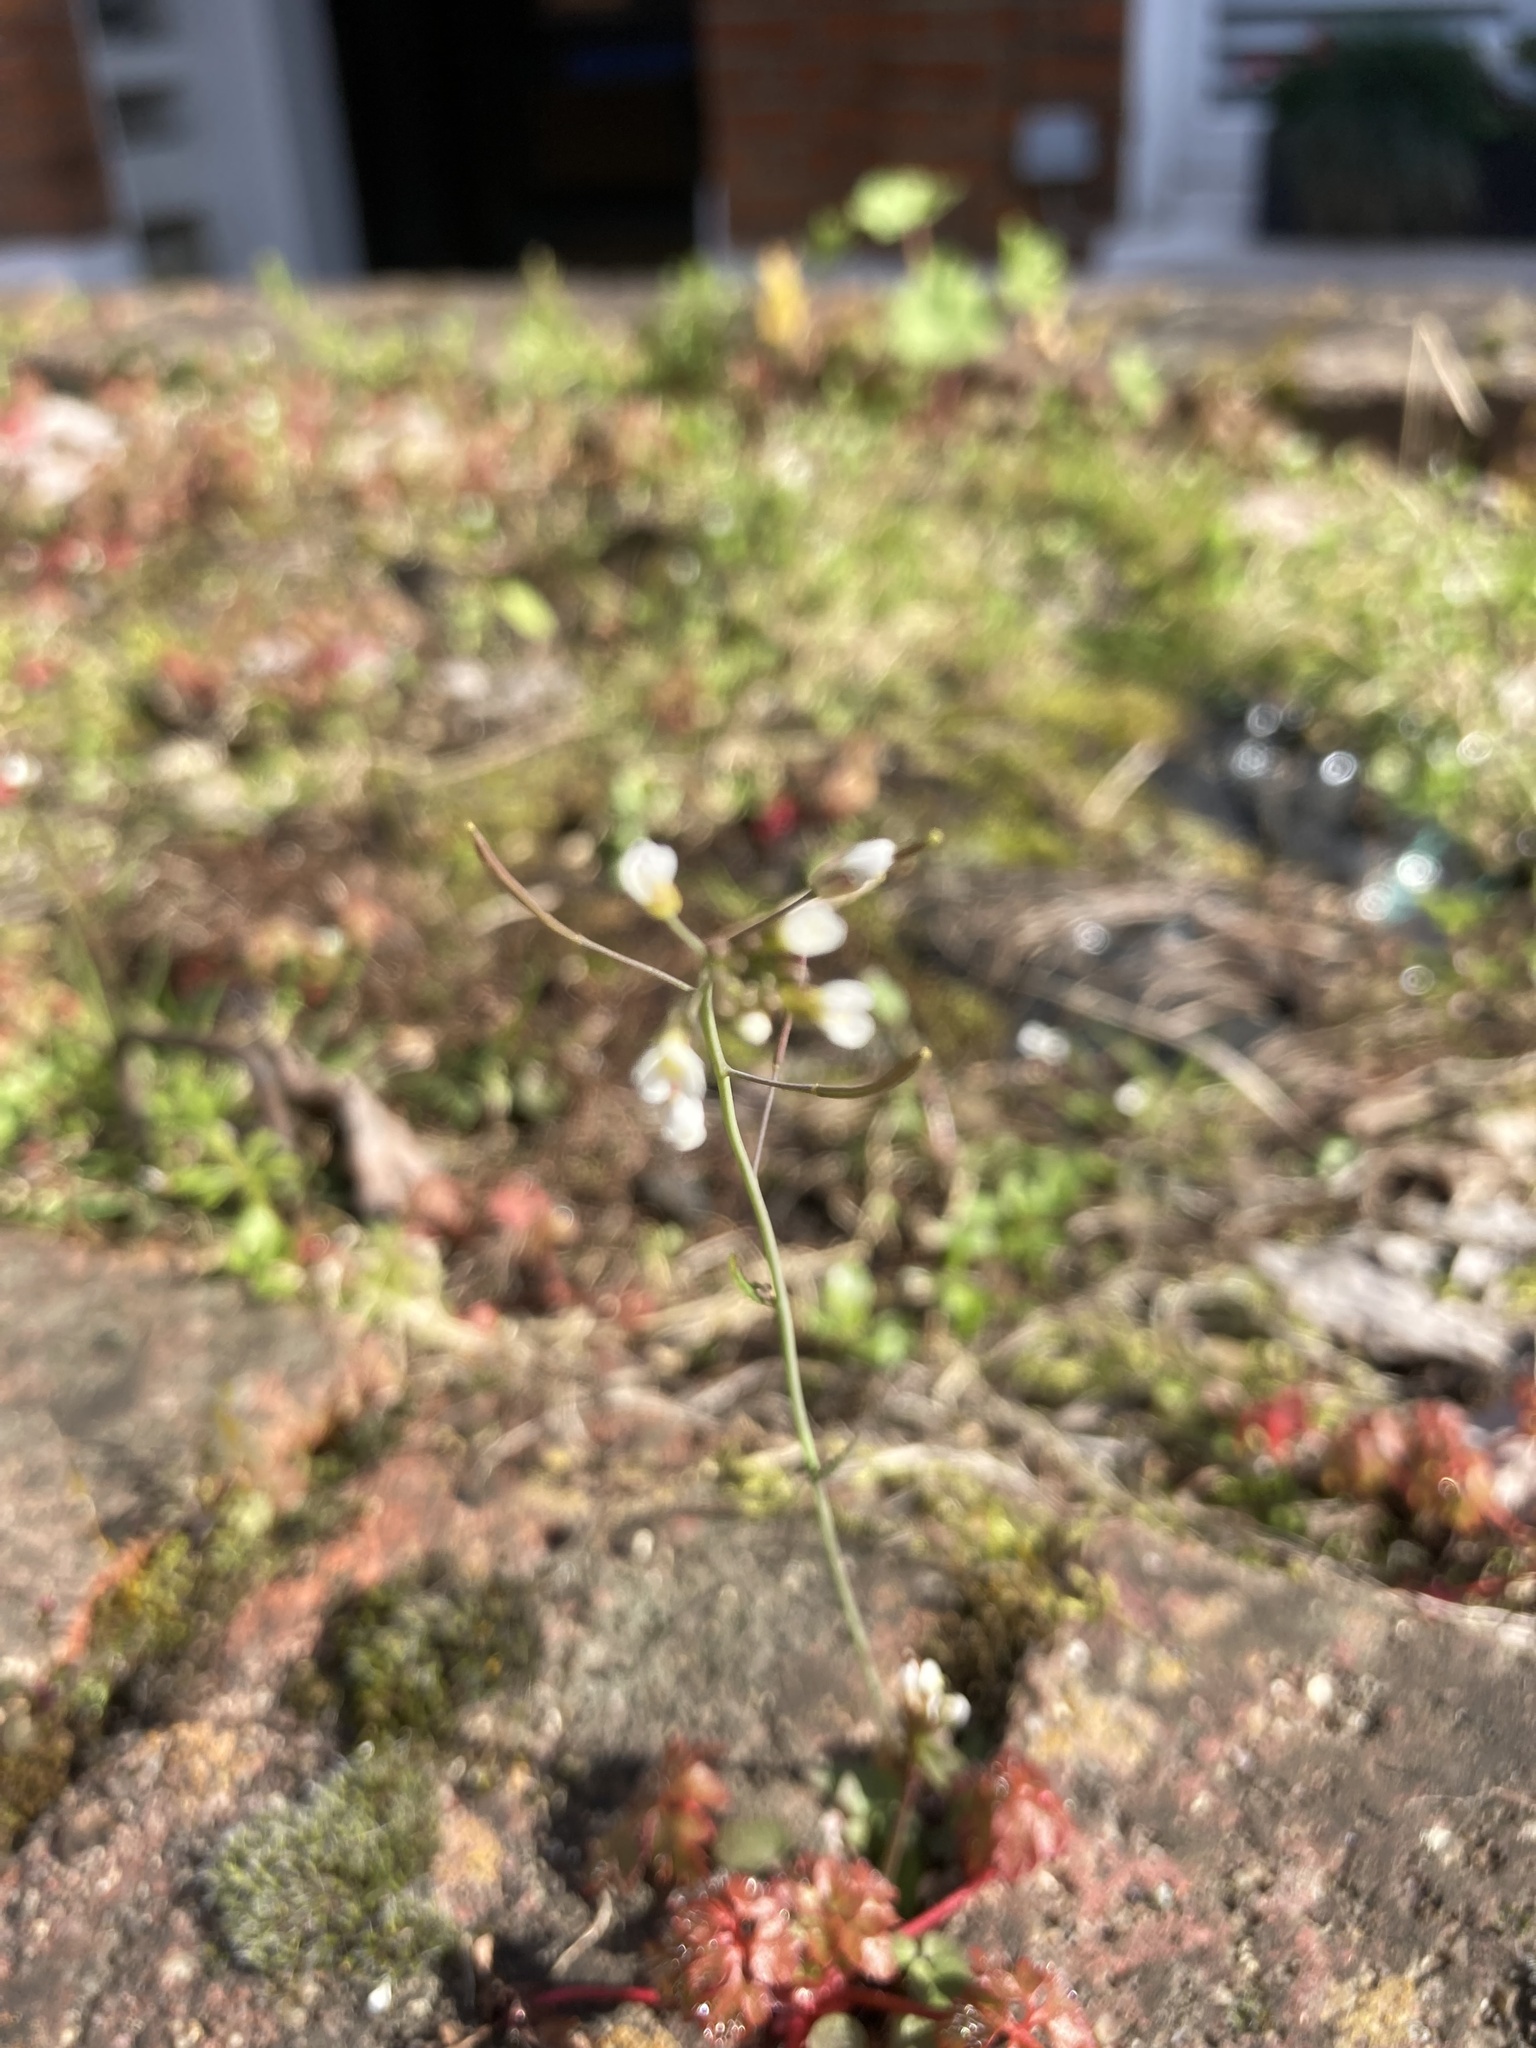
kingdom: Plantae
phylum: Tracheophyta
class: Magnoliopsida
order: Brassicales
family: Brassicaceae
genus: Arabidopsis
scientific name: Arabidopsis thaliana
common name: Thale cress
